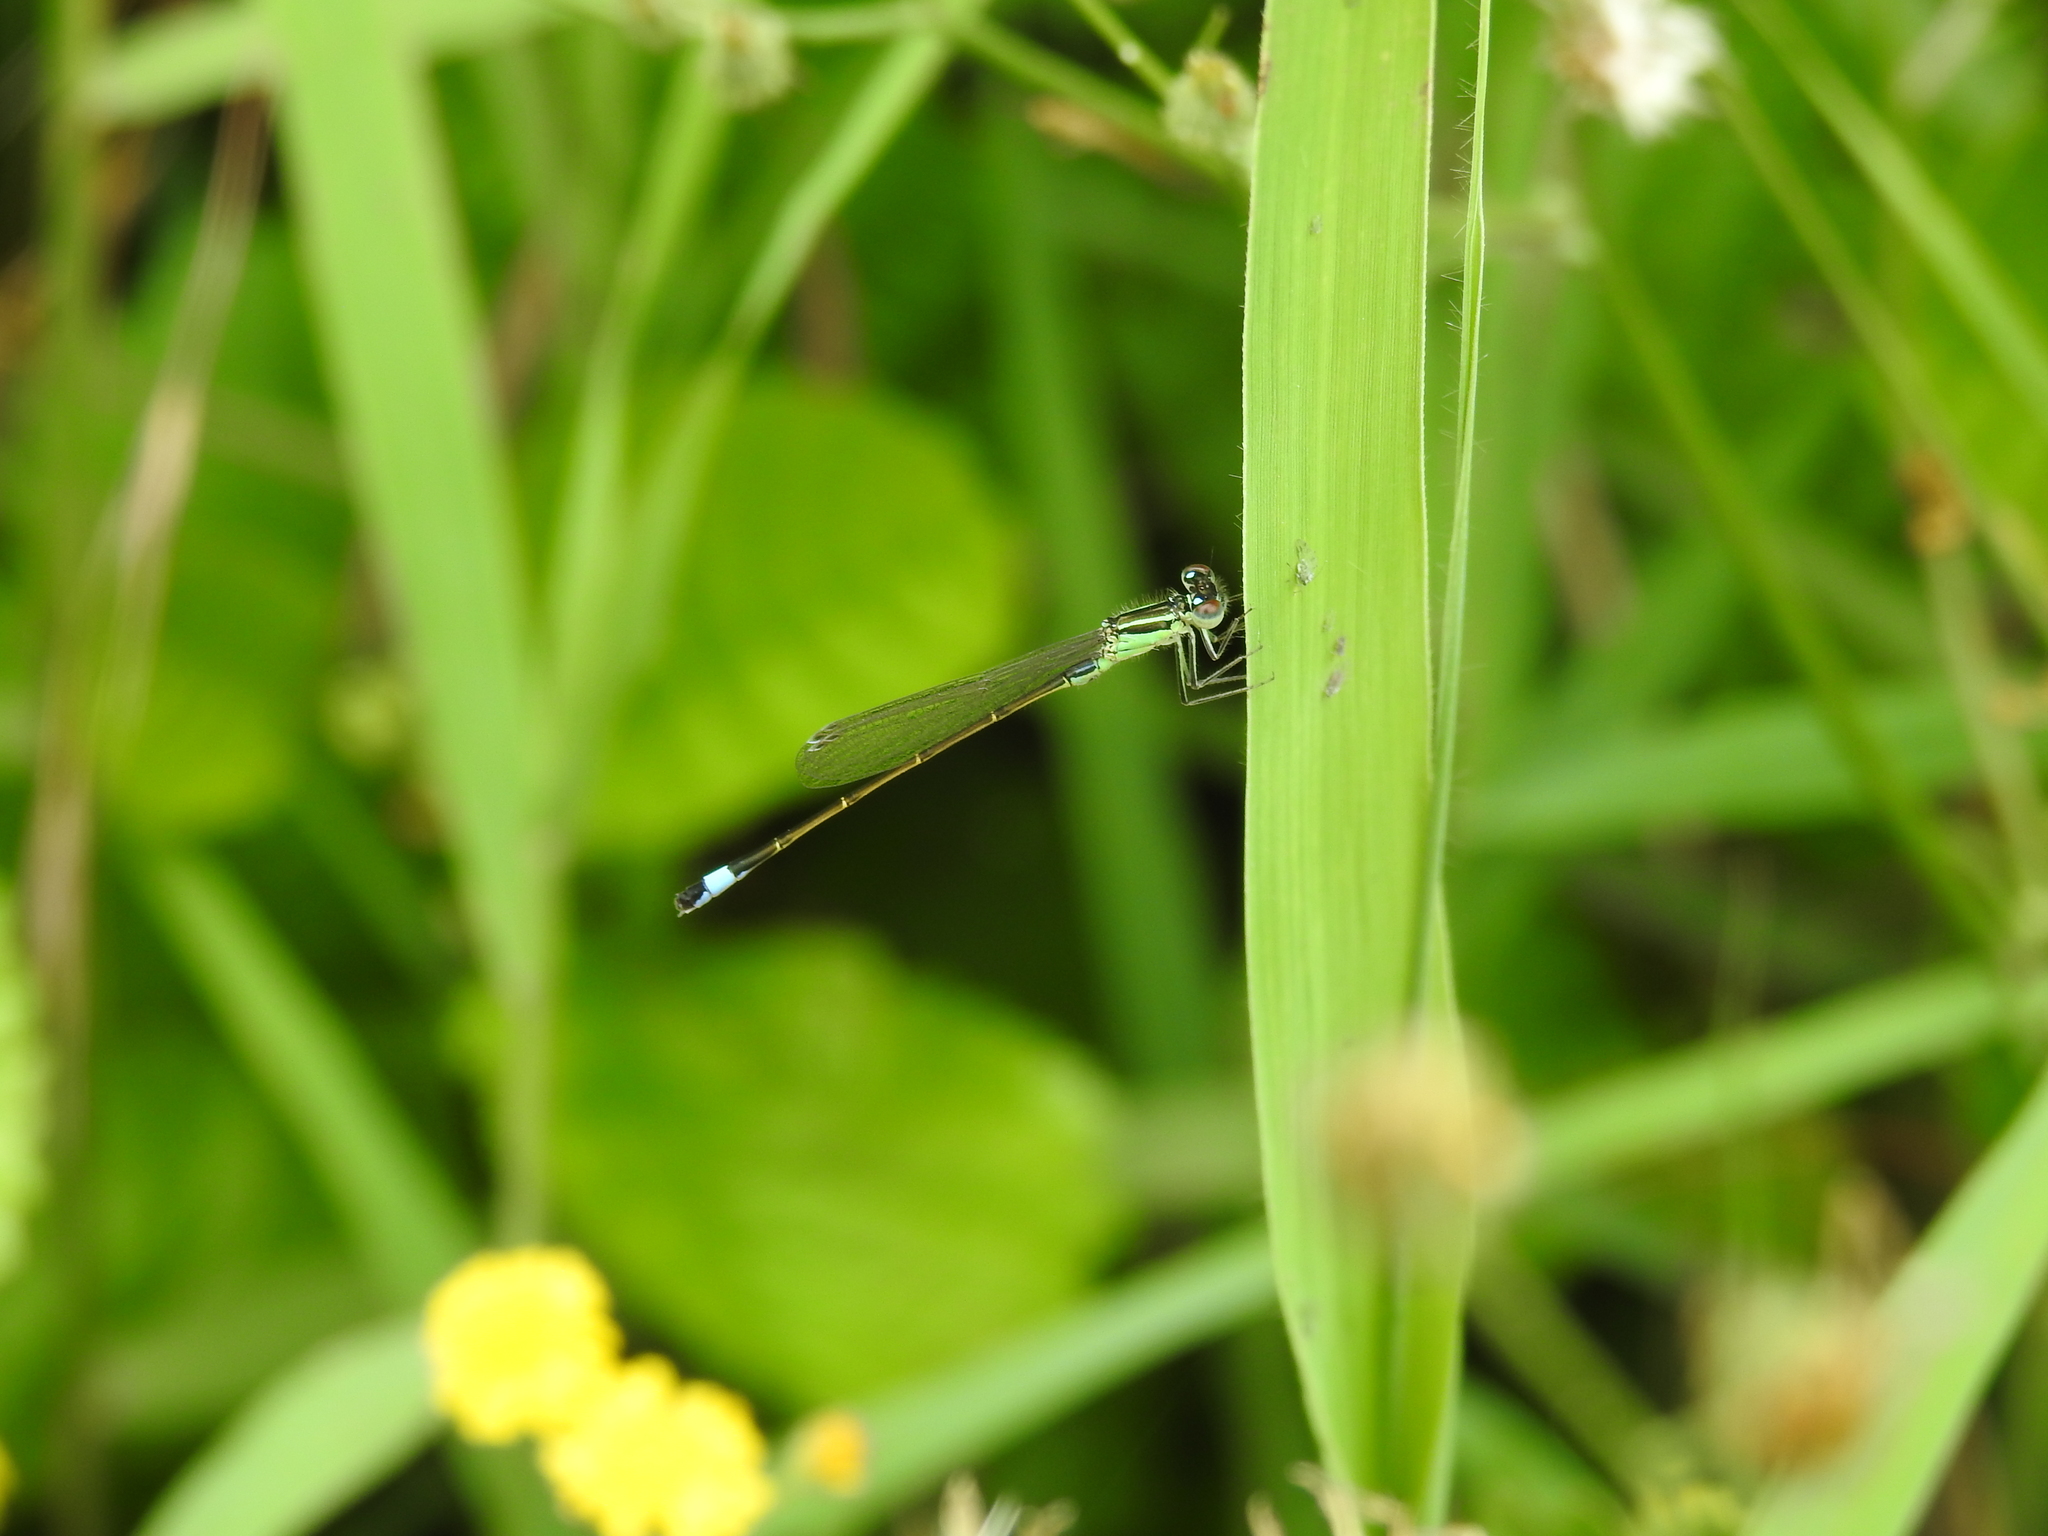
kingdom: Animalia
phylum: Arthropoda
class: Insecta
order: Odonata
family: Coenagrionidae
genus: Ischnura
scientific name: Ischnura elegans
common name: Blue-tailed damselfly
